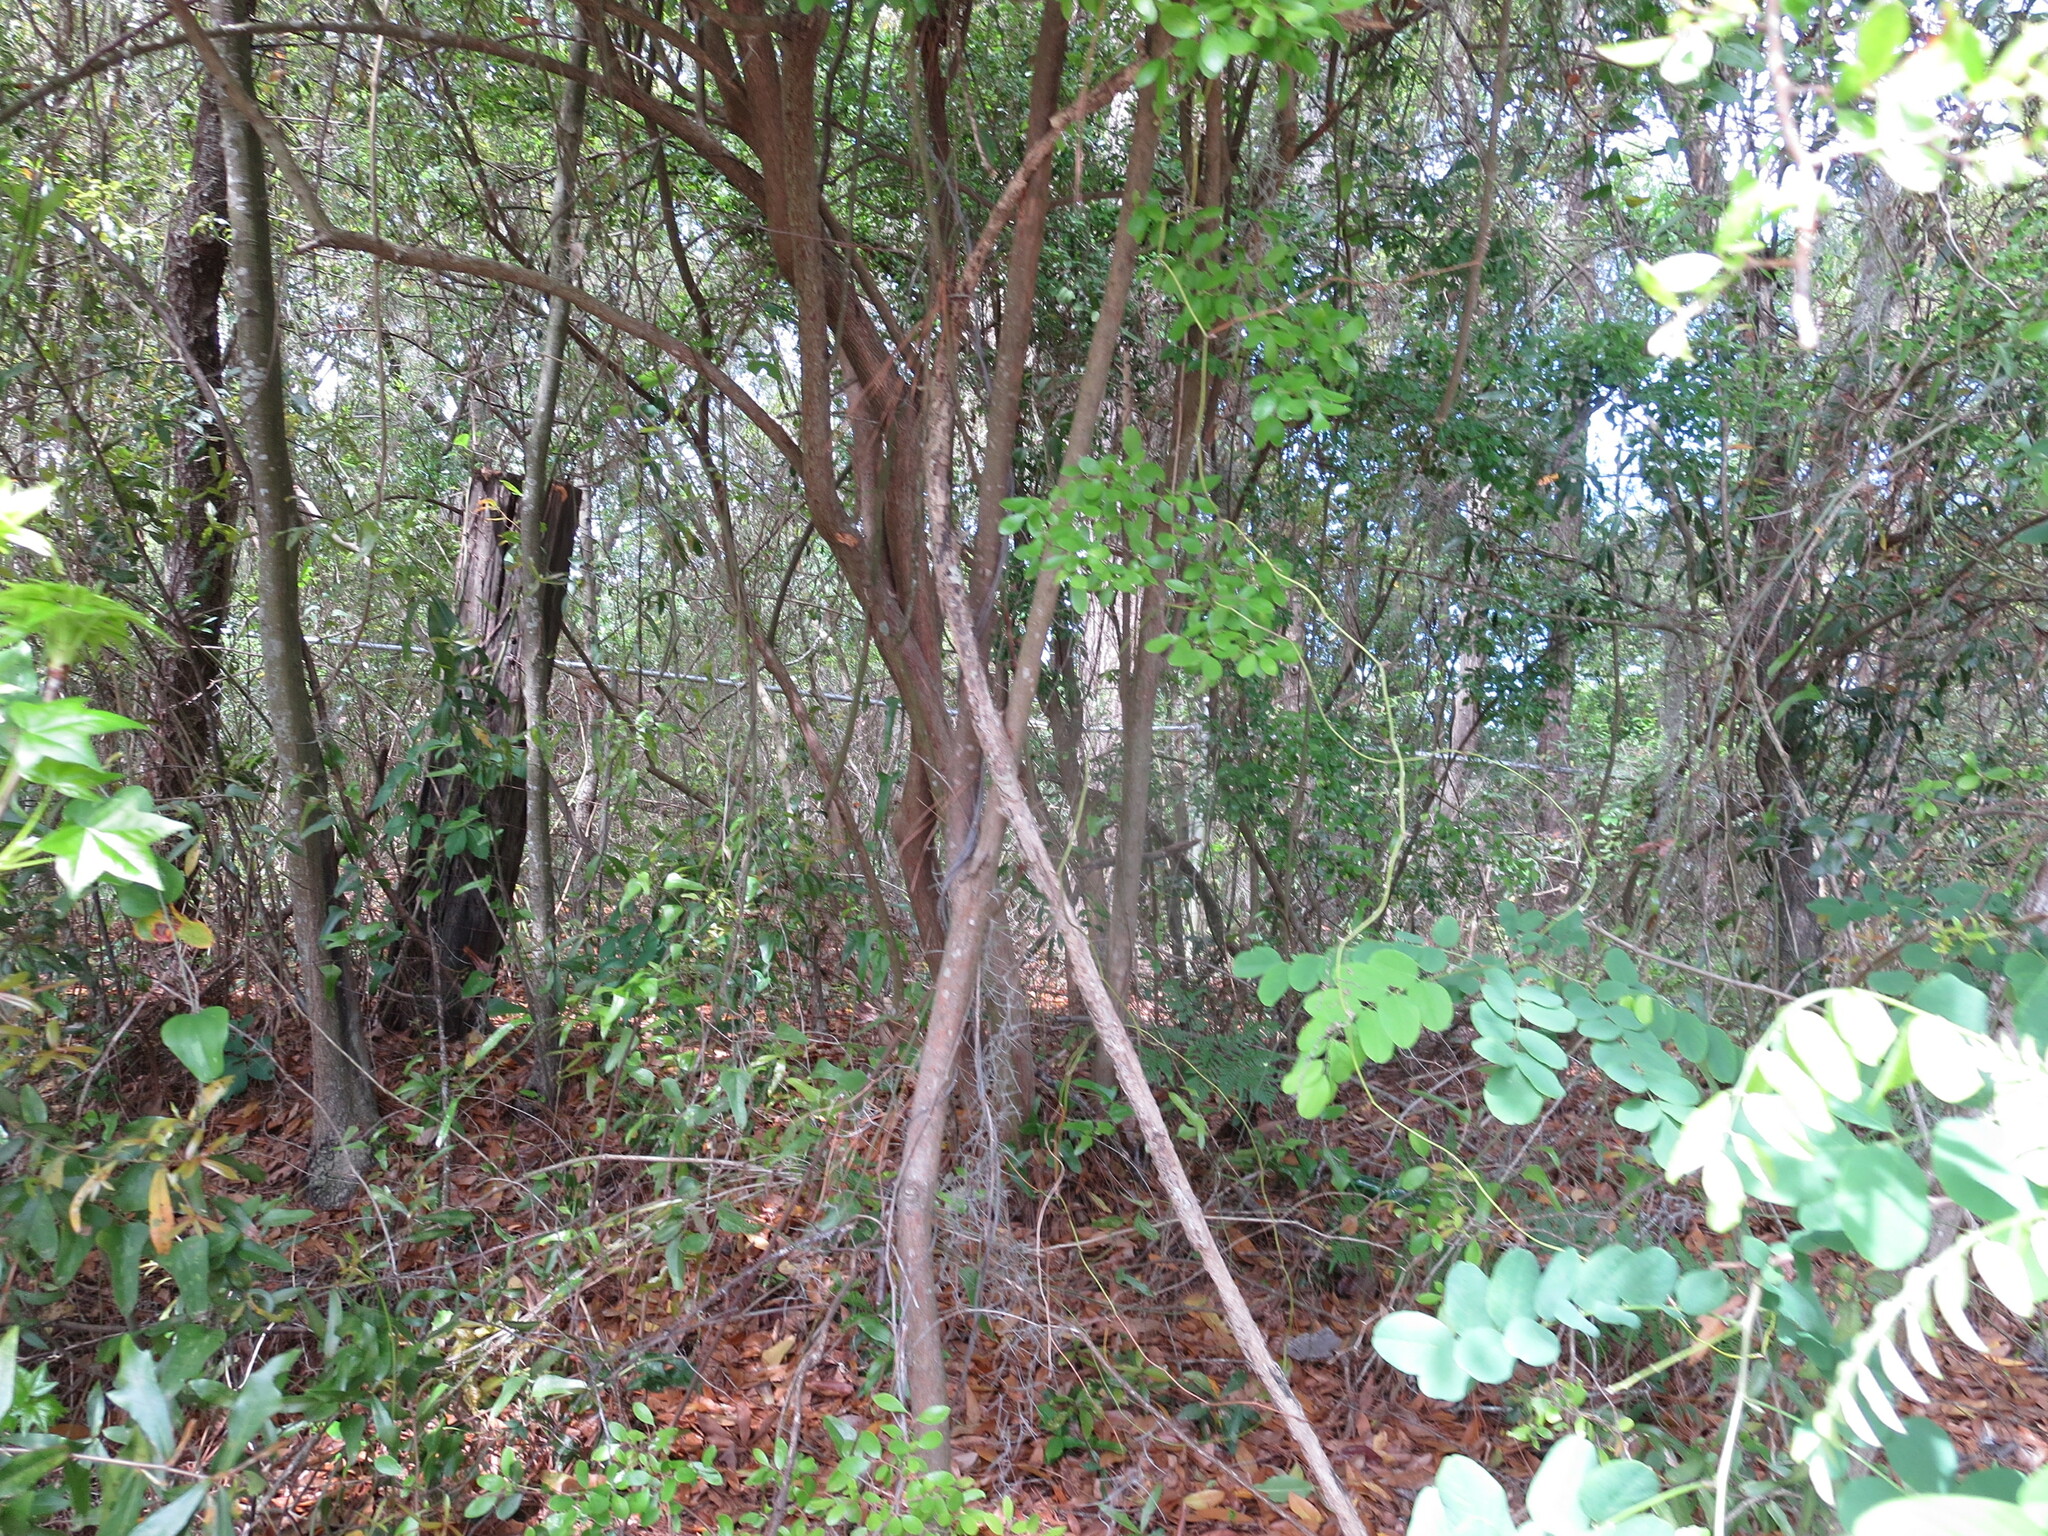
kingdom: Plantae
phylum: Tracheophyta
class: Magnoliopsida
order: Ericales
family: Ericaceae
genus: Vaccinium
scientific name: Vaccinium arboreum
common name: Farkleberry
